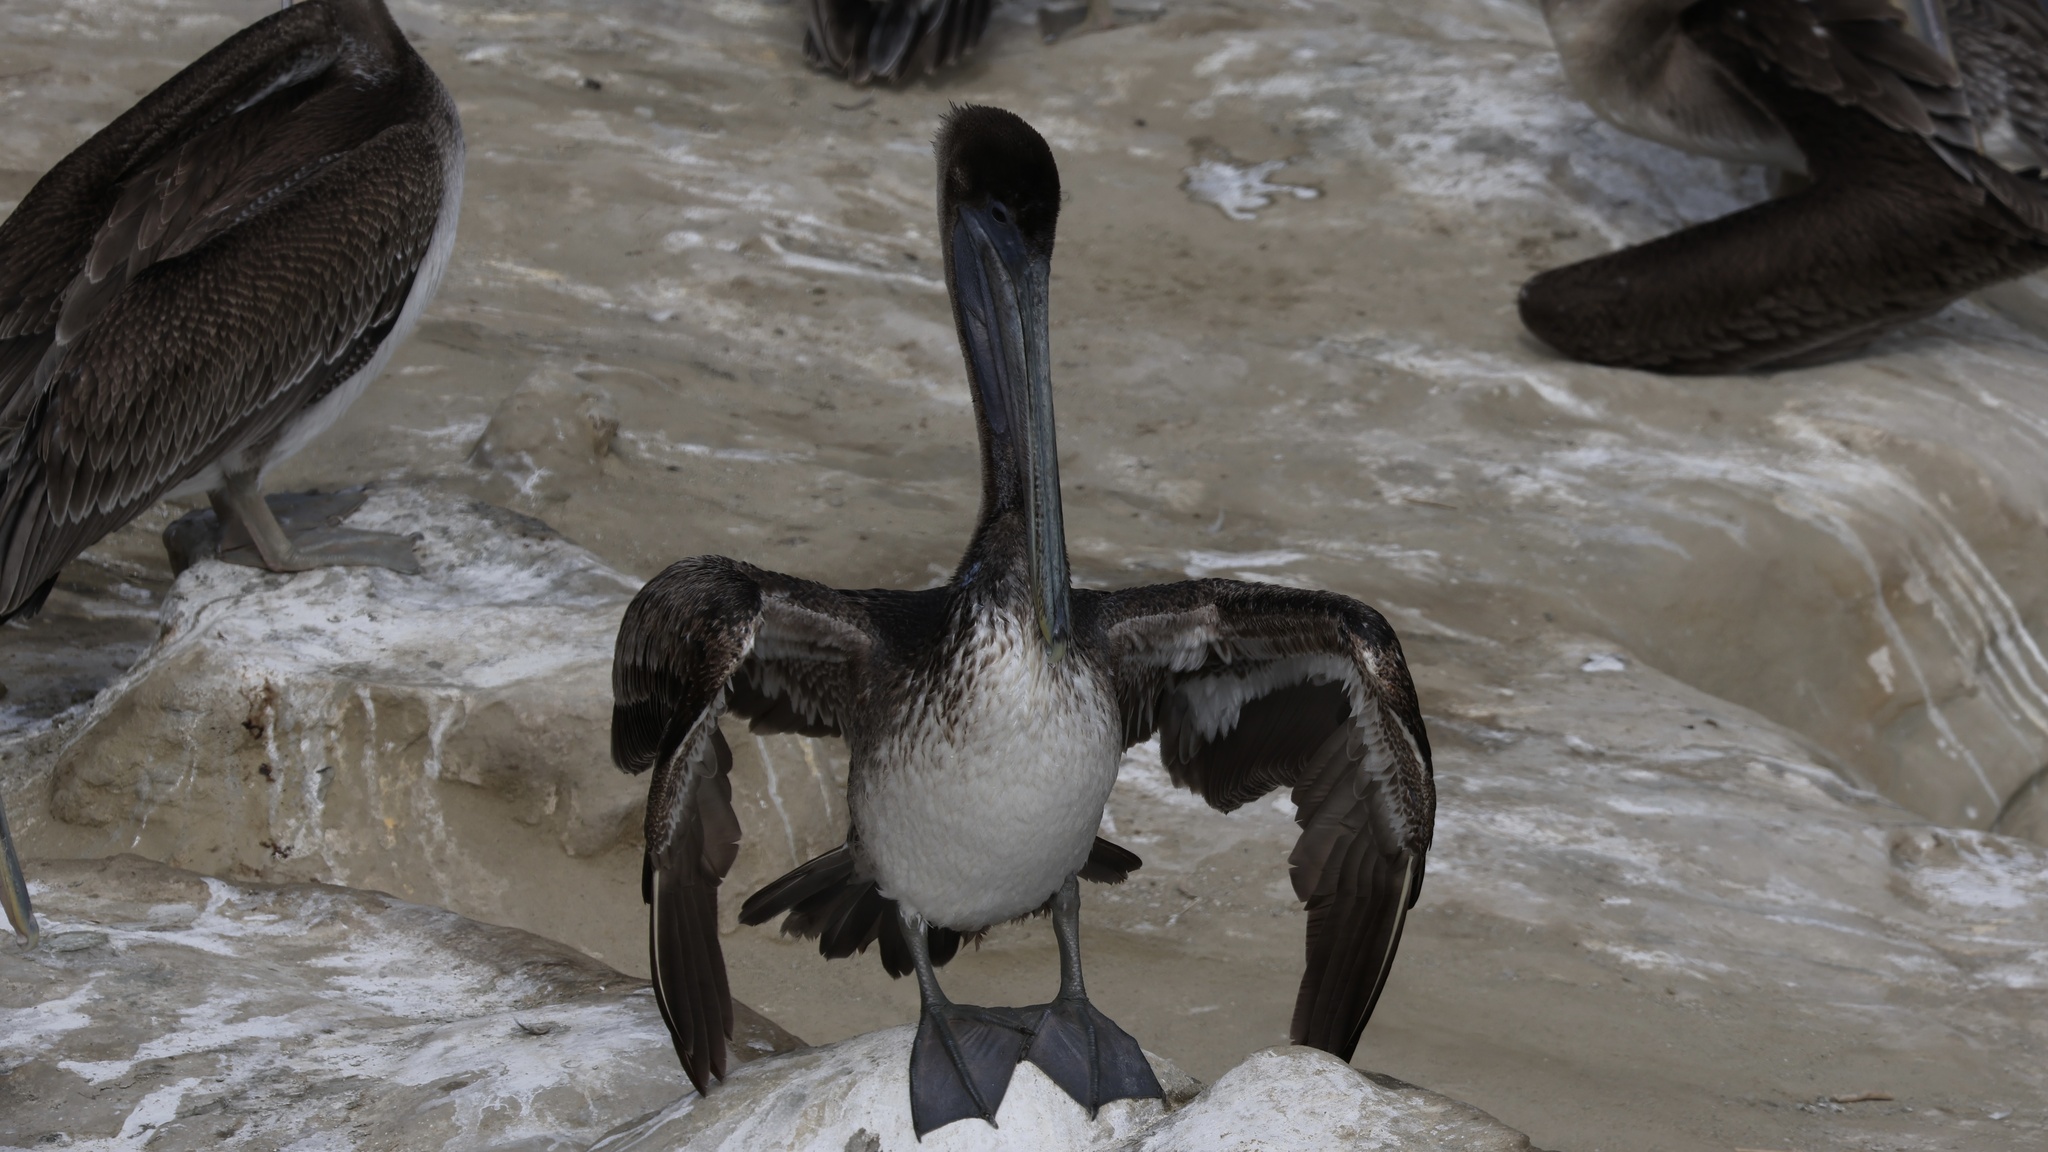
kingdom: Animalia
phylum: Chordata
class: Aves
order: Pelecaniformes
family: Pelecanidae
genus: Pelecanus
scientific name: Pelecanus occidentalis
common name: Brown pelican
